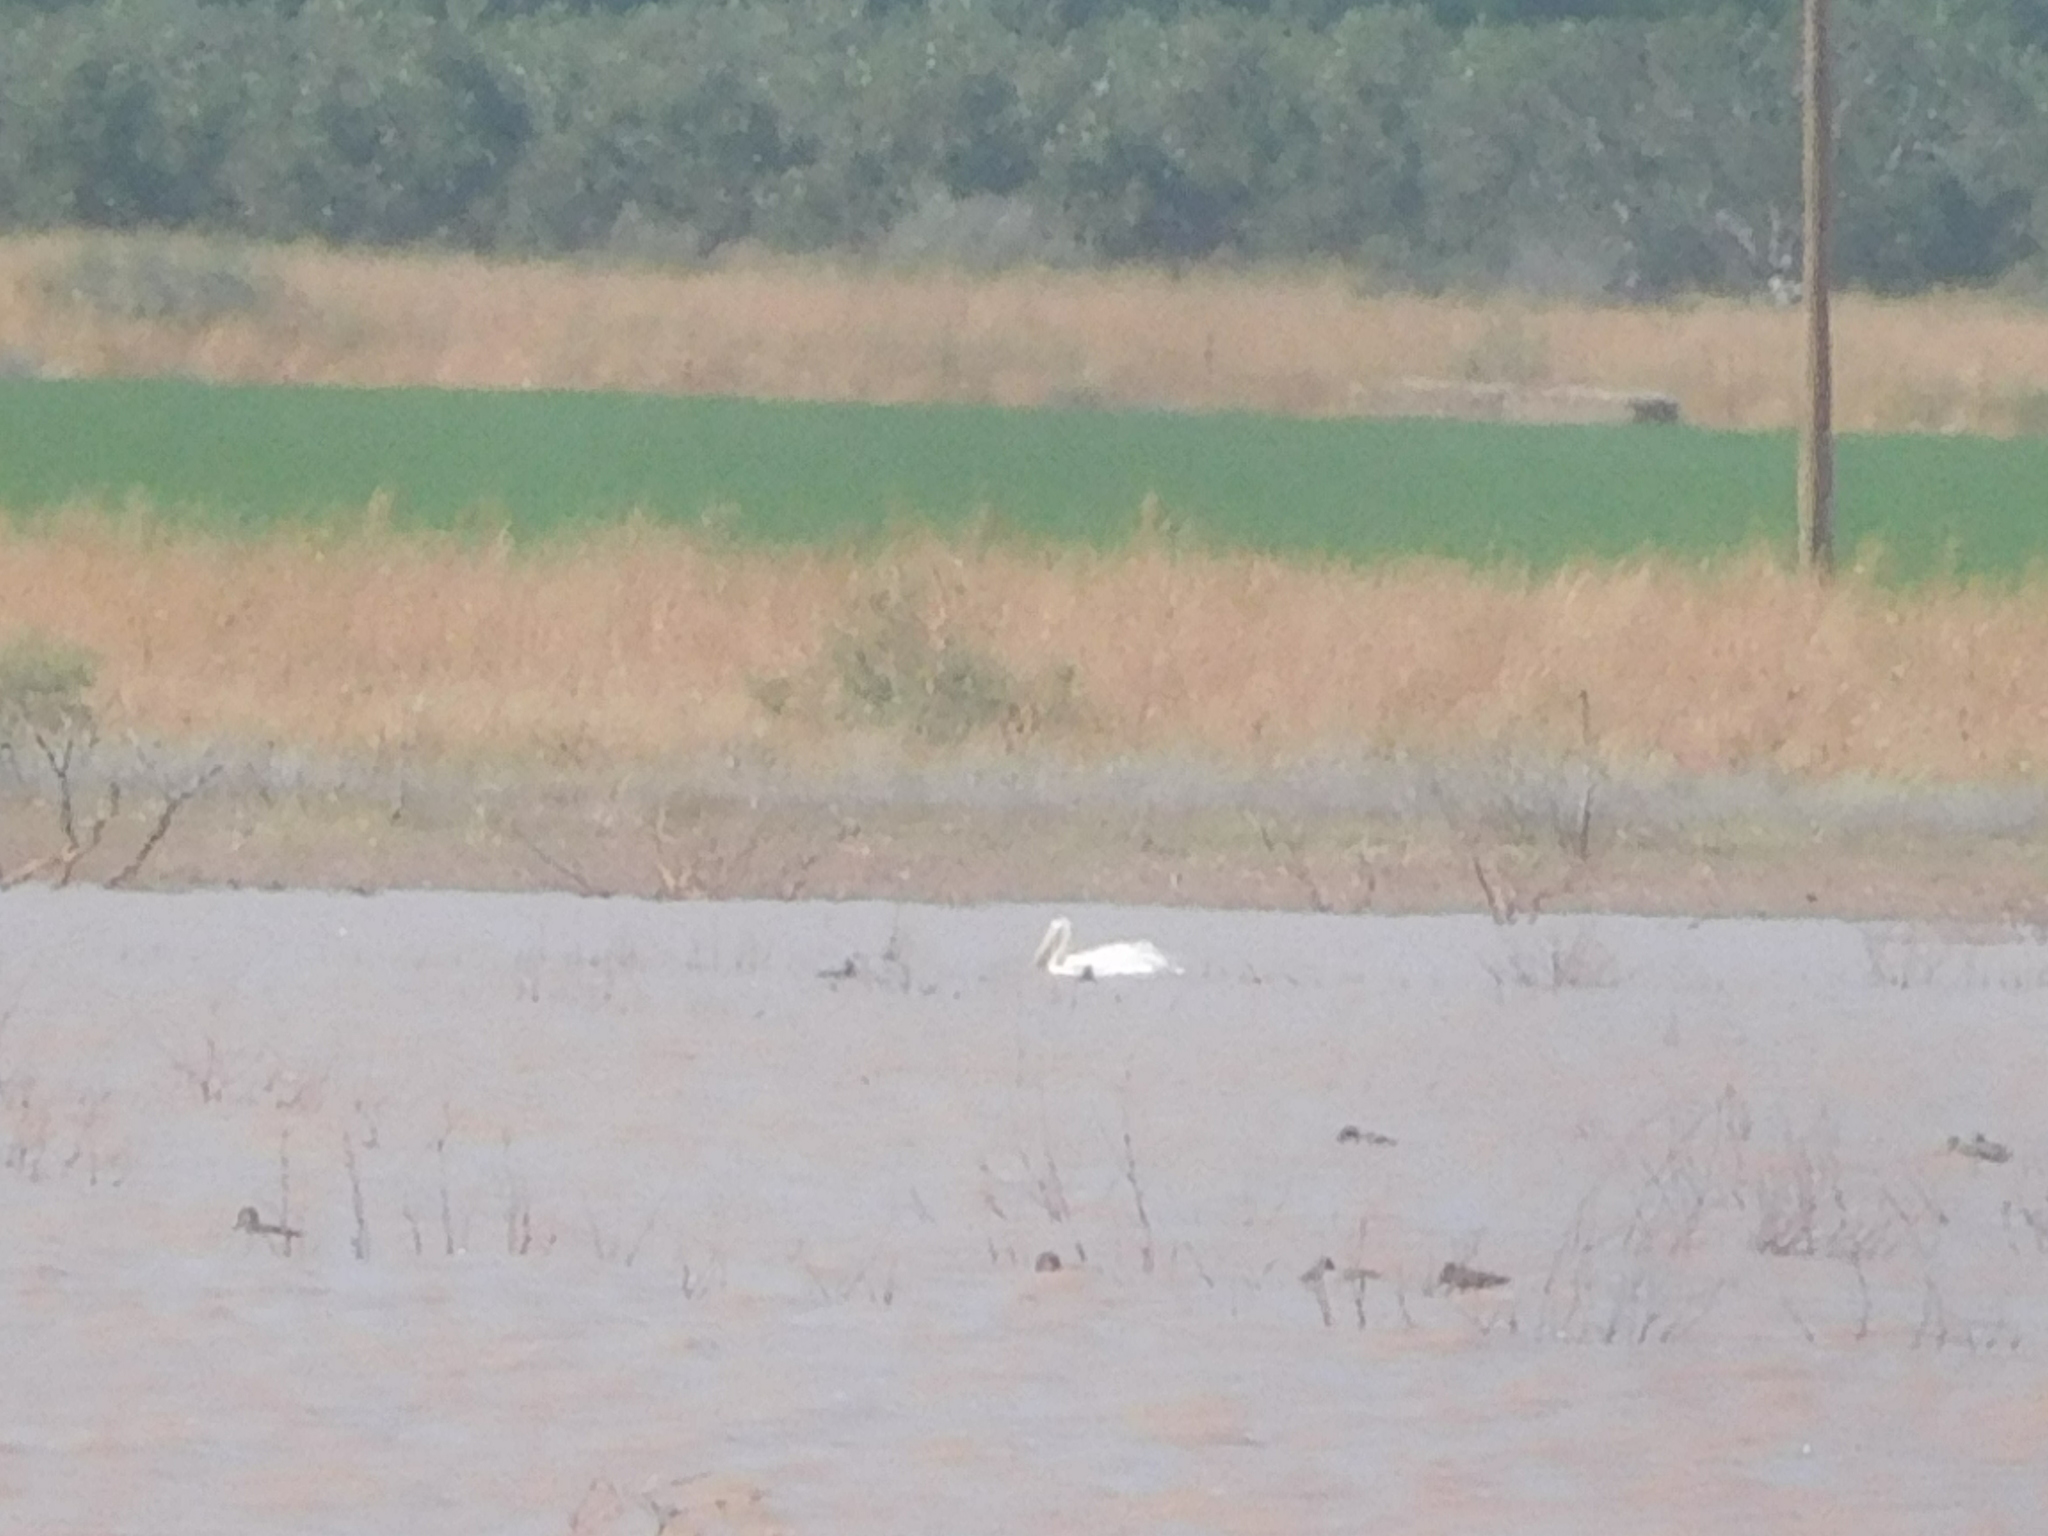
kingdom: Animalia
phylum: Chordata
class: Aves
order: Pelecaniformes
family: Pelecanidae
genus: Pelecanus
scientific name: Pelecanus erythrorhynchos
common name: American white pelican
